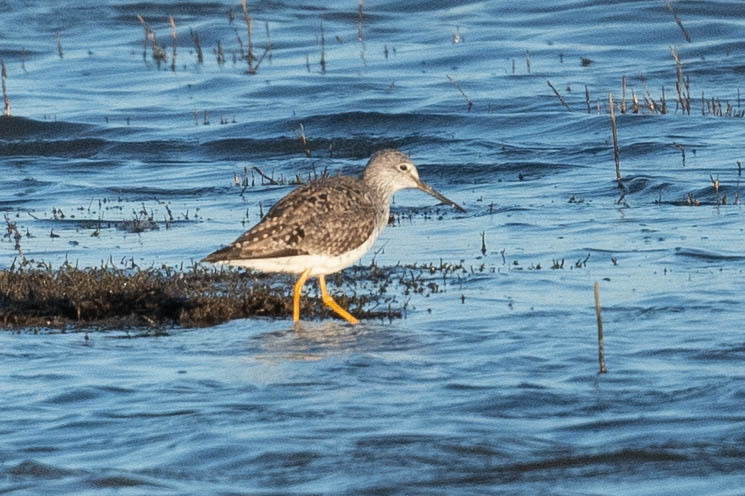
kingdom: Animalia
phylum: Chordata
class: Aves
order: Charadriiformes
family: Scolopacidae
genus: Tringa
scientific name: Tringa melanoleuca
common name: Greater yellowlegs
